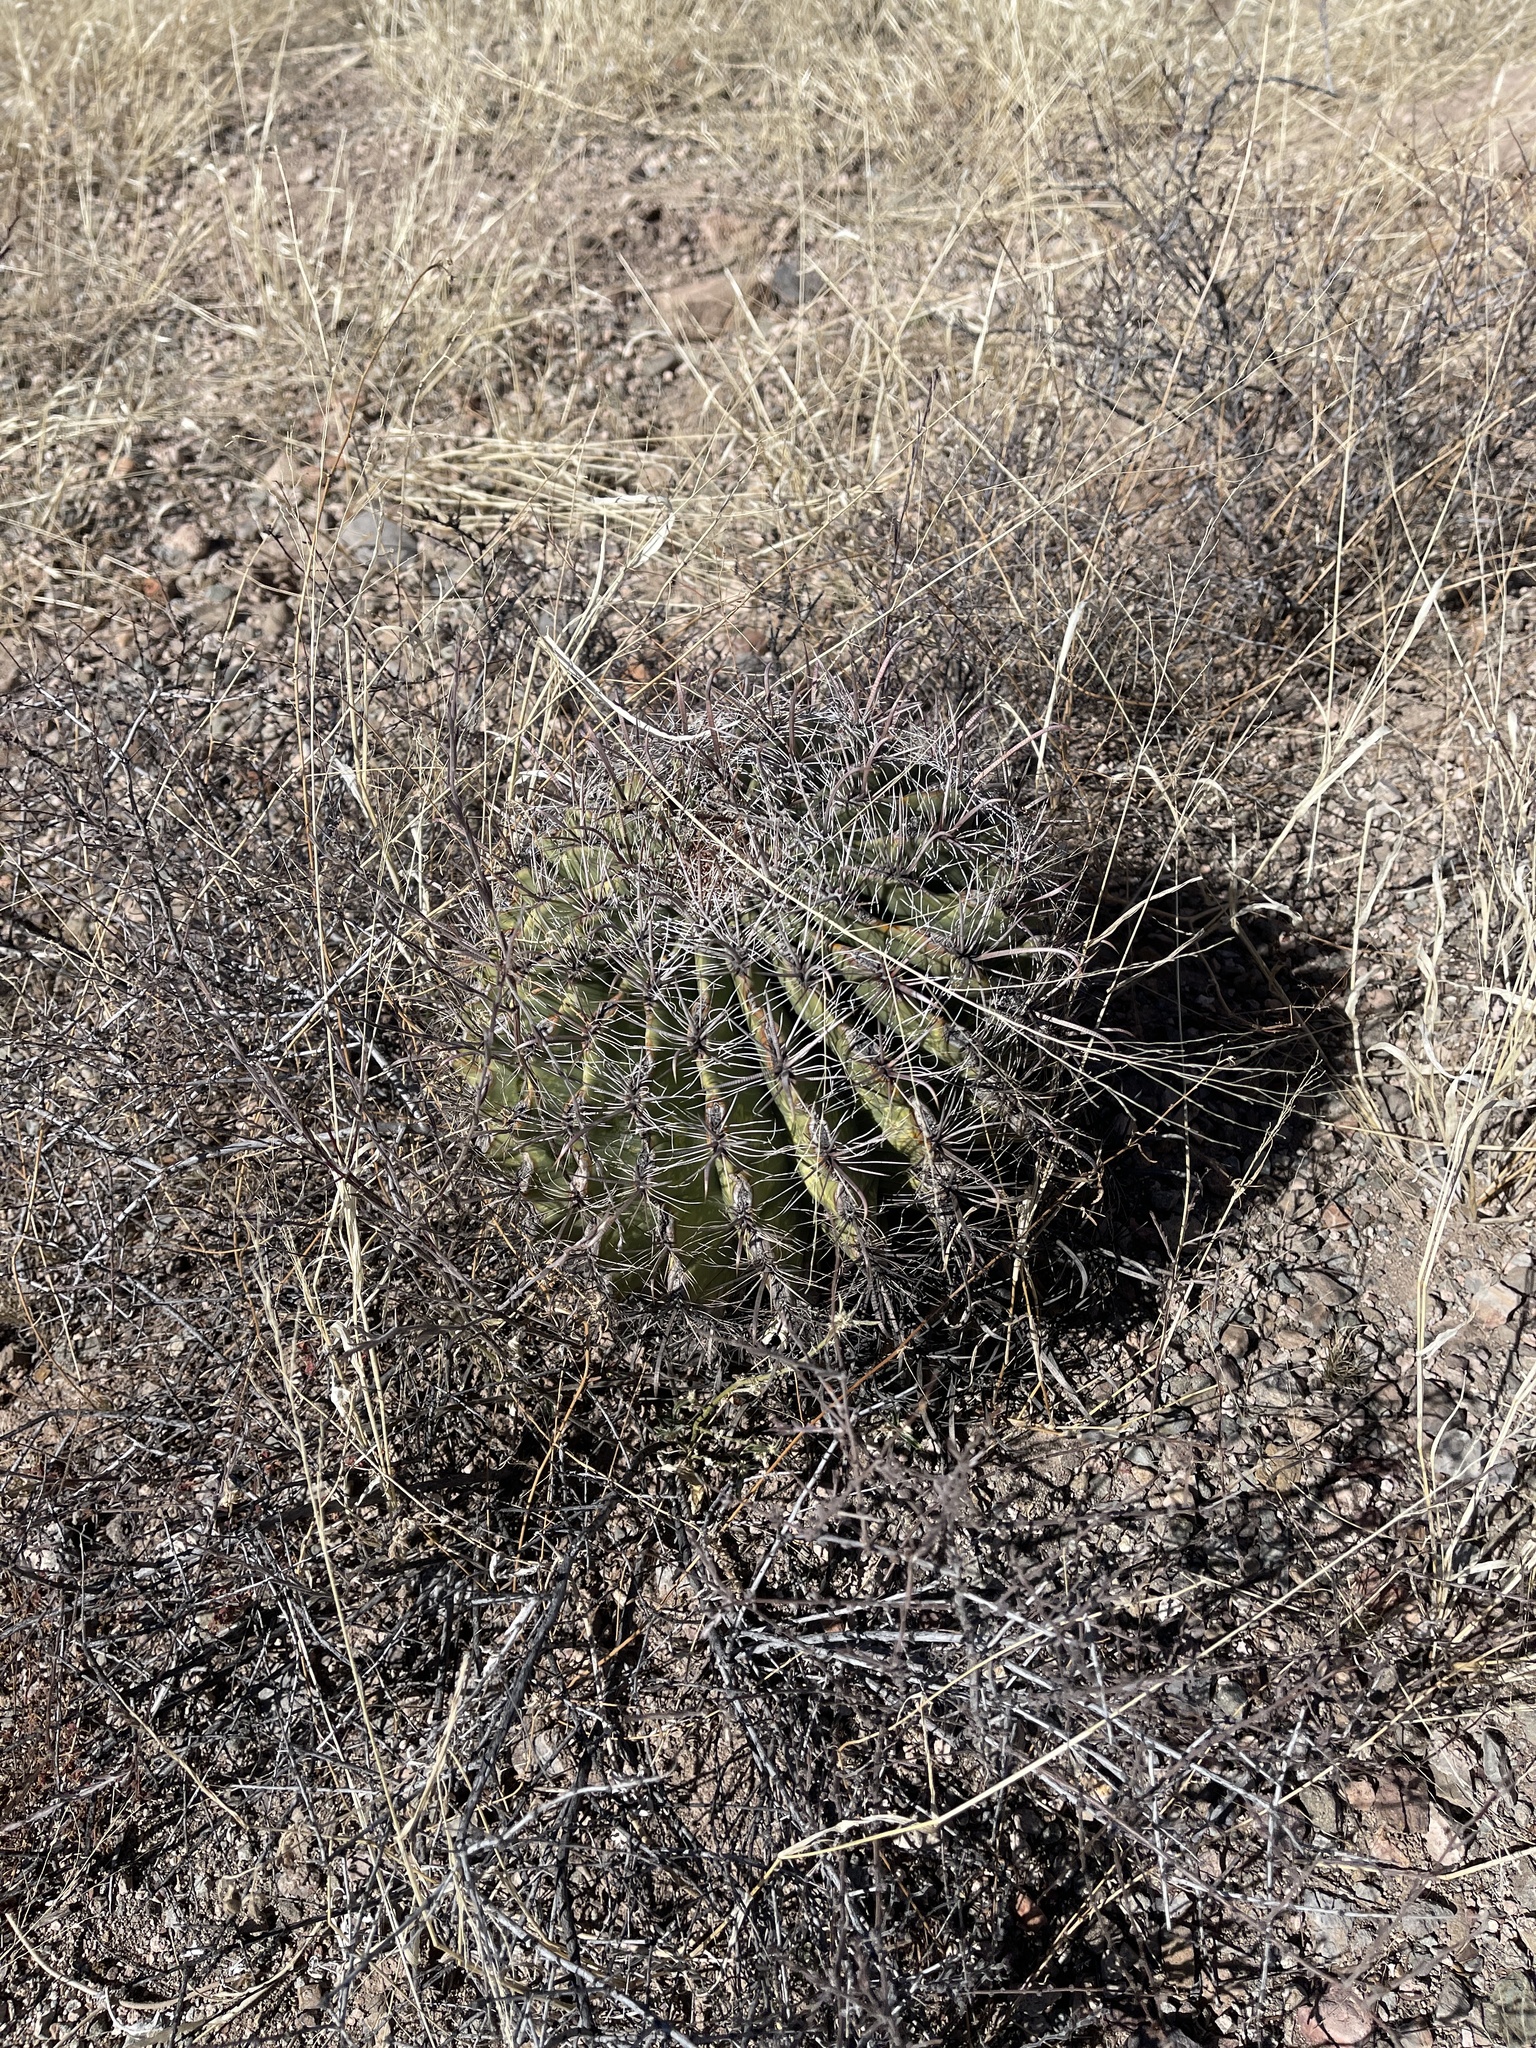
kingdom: Plantae
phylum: Tracheophyta
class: Magnoliopsida
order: Caryophyllales
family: Cactaceae
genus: Ferocactus
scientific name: Ferocactus wislizeni
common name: Candy barrel cactus
